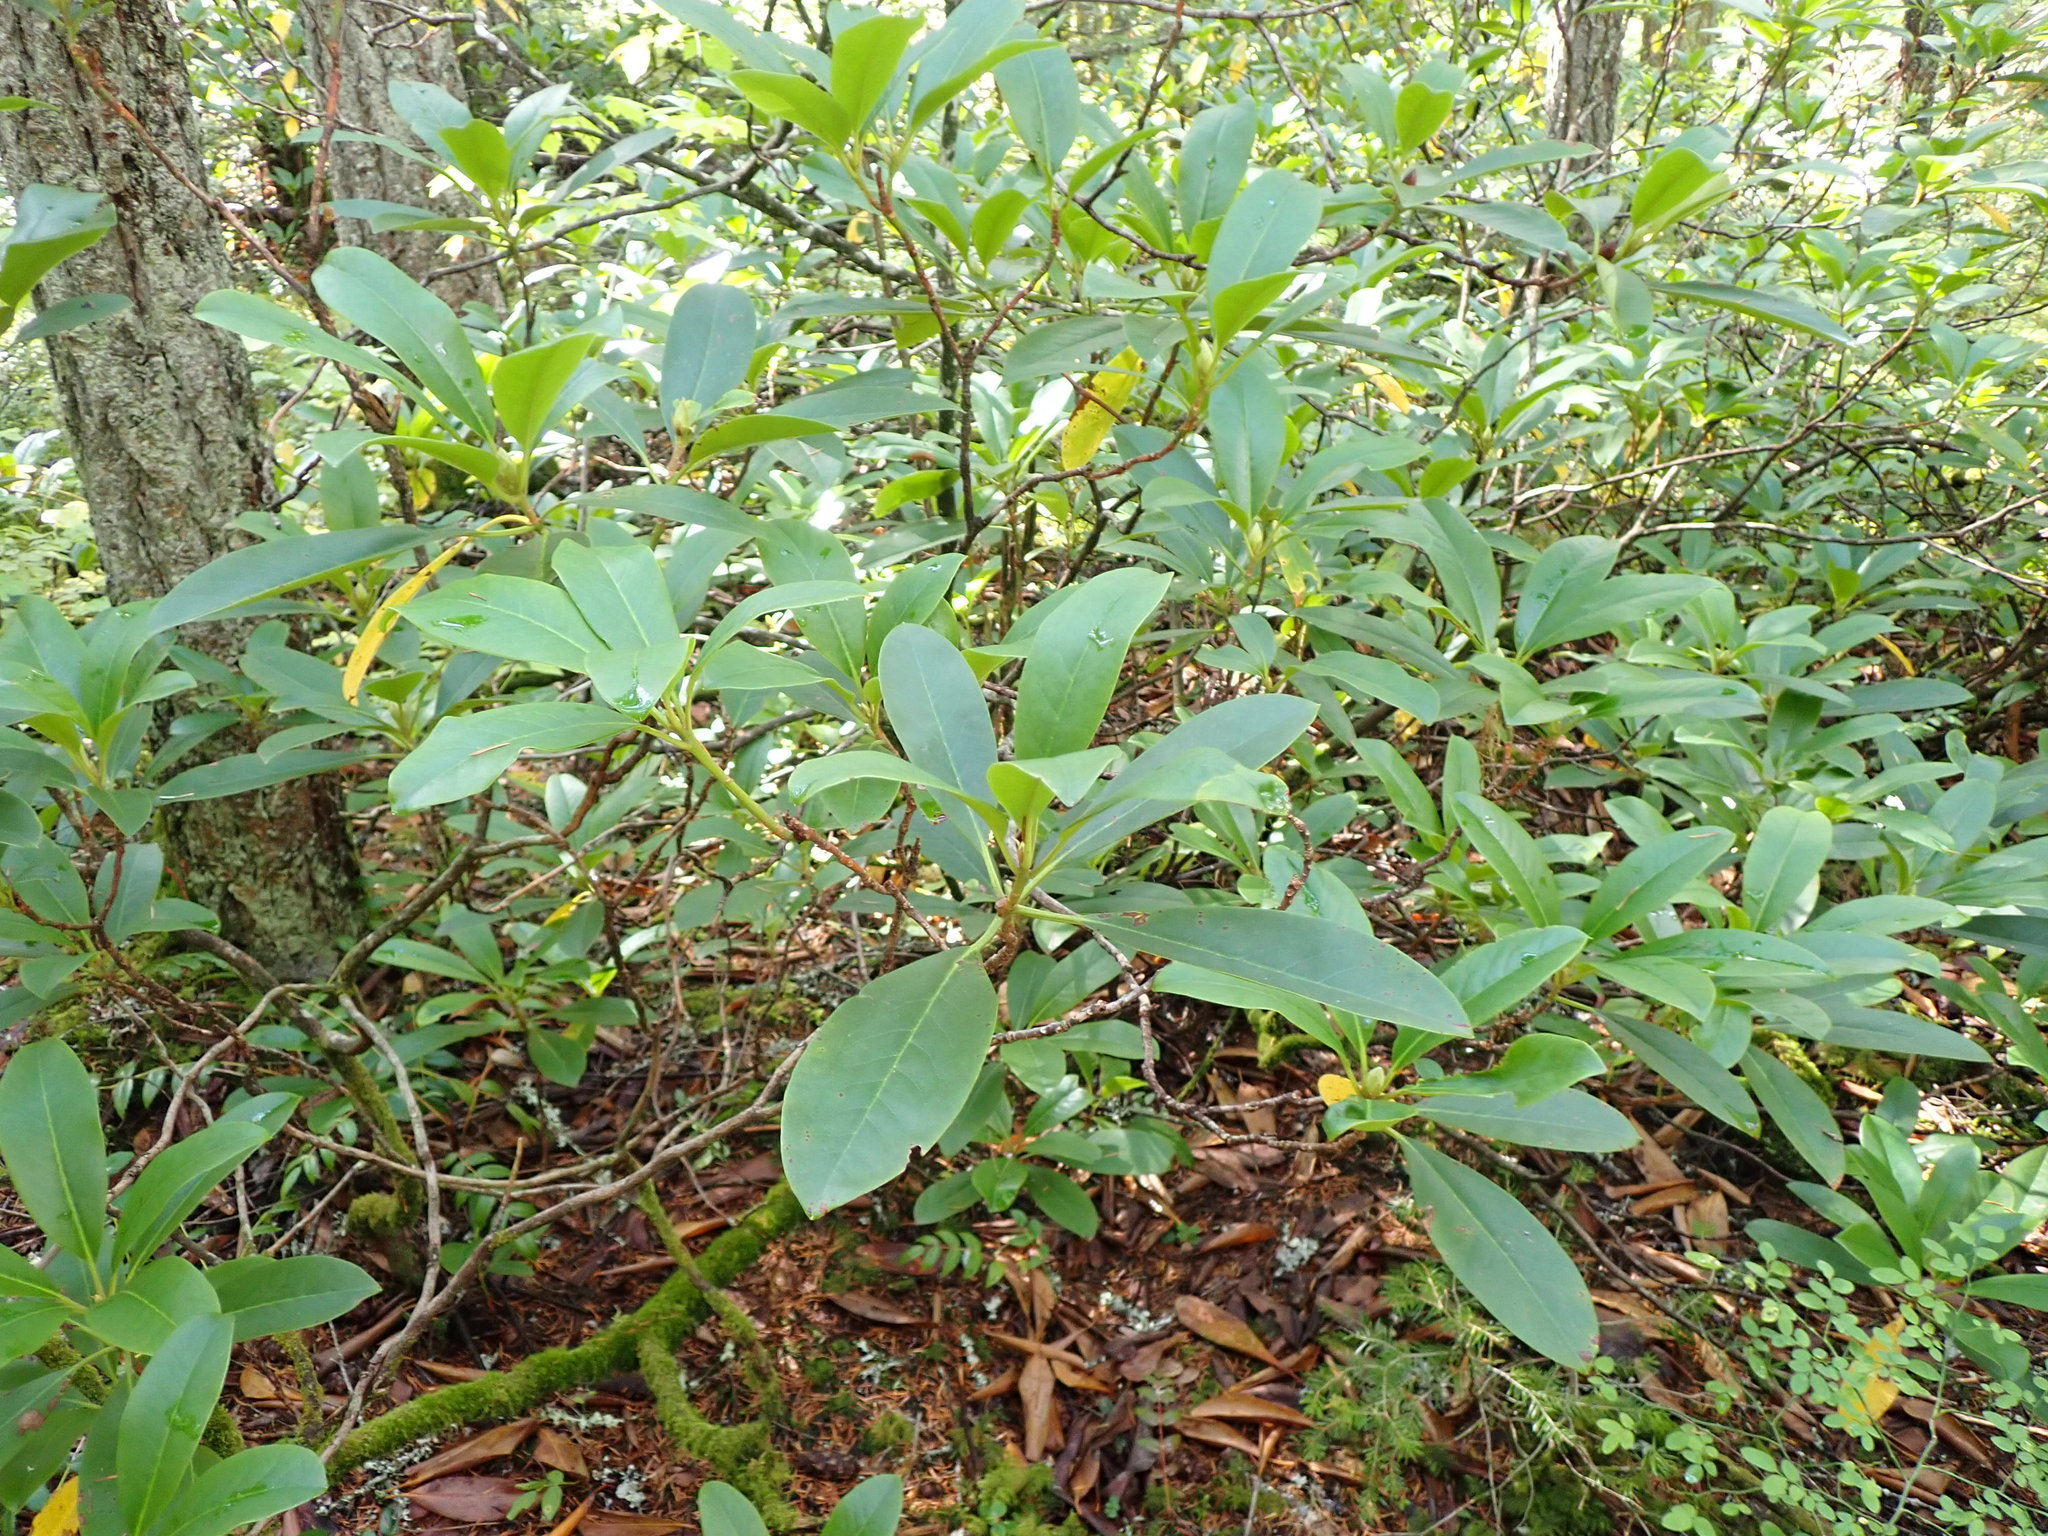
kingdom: Plantae
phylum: Tracheophyta
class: Magnoliopsida
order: Ericales
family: Ericaceae
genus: Rhododendron
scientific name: Rhododendron macrophyllum
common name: California rose bay
